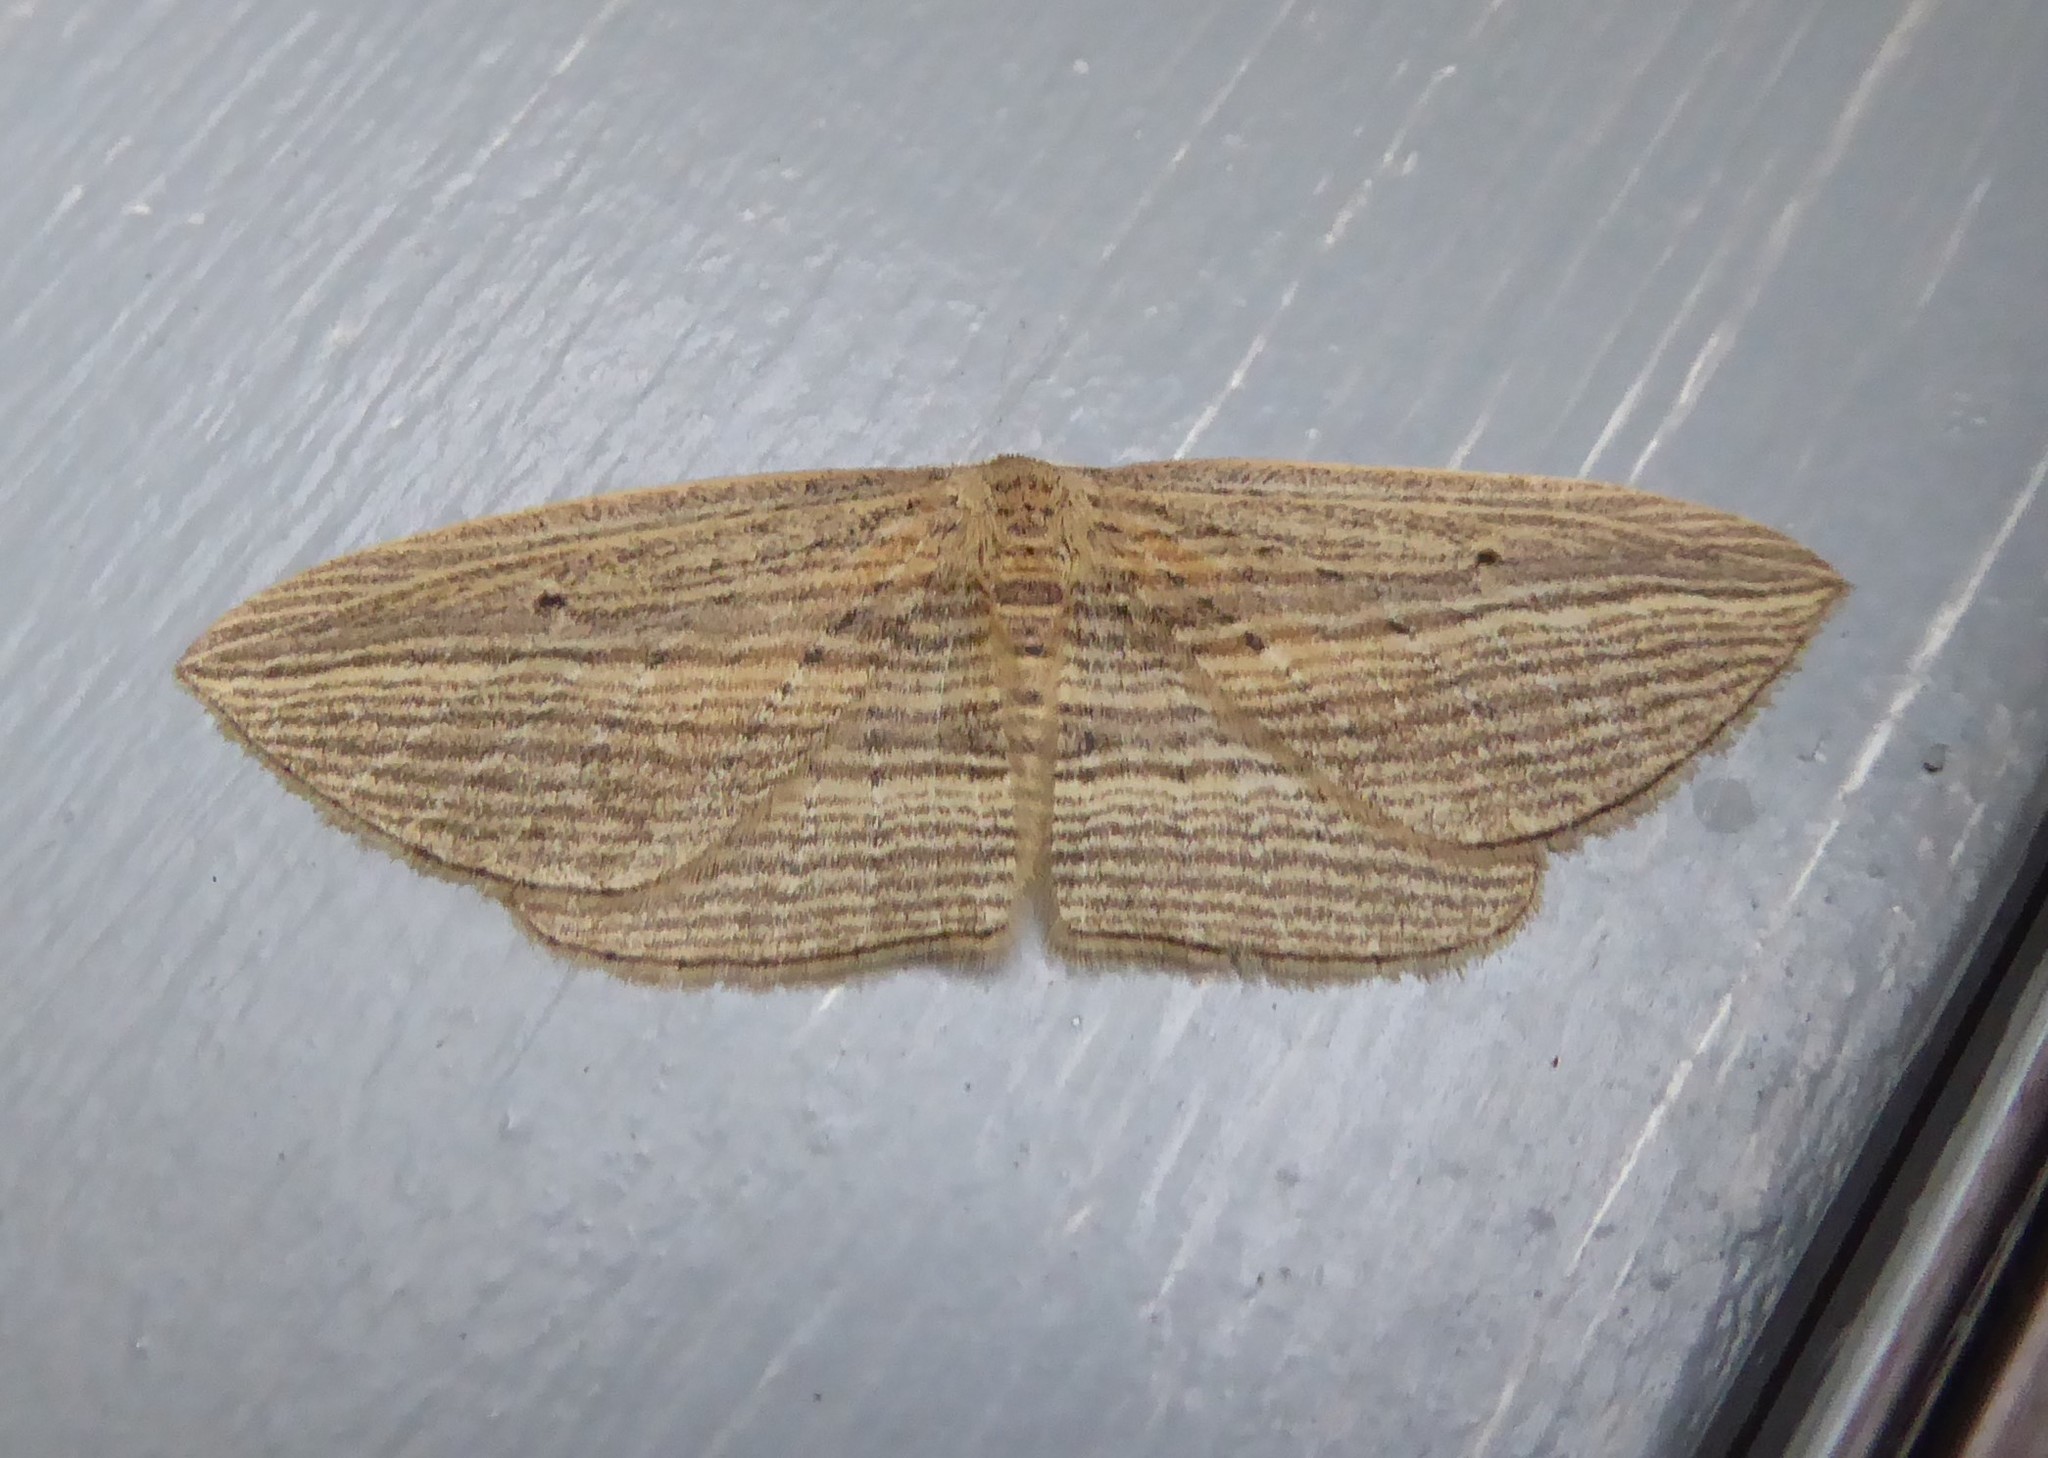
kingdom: Animalia
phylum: Arthropoda
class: Insecta
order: Lepidoptera
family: Geometridae
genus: Epiphryne
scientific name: Epiphryne verriculata
